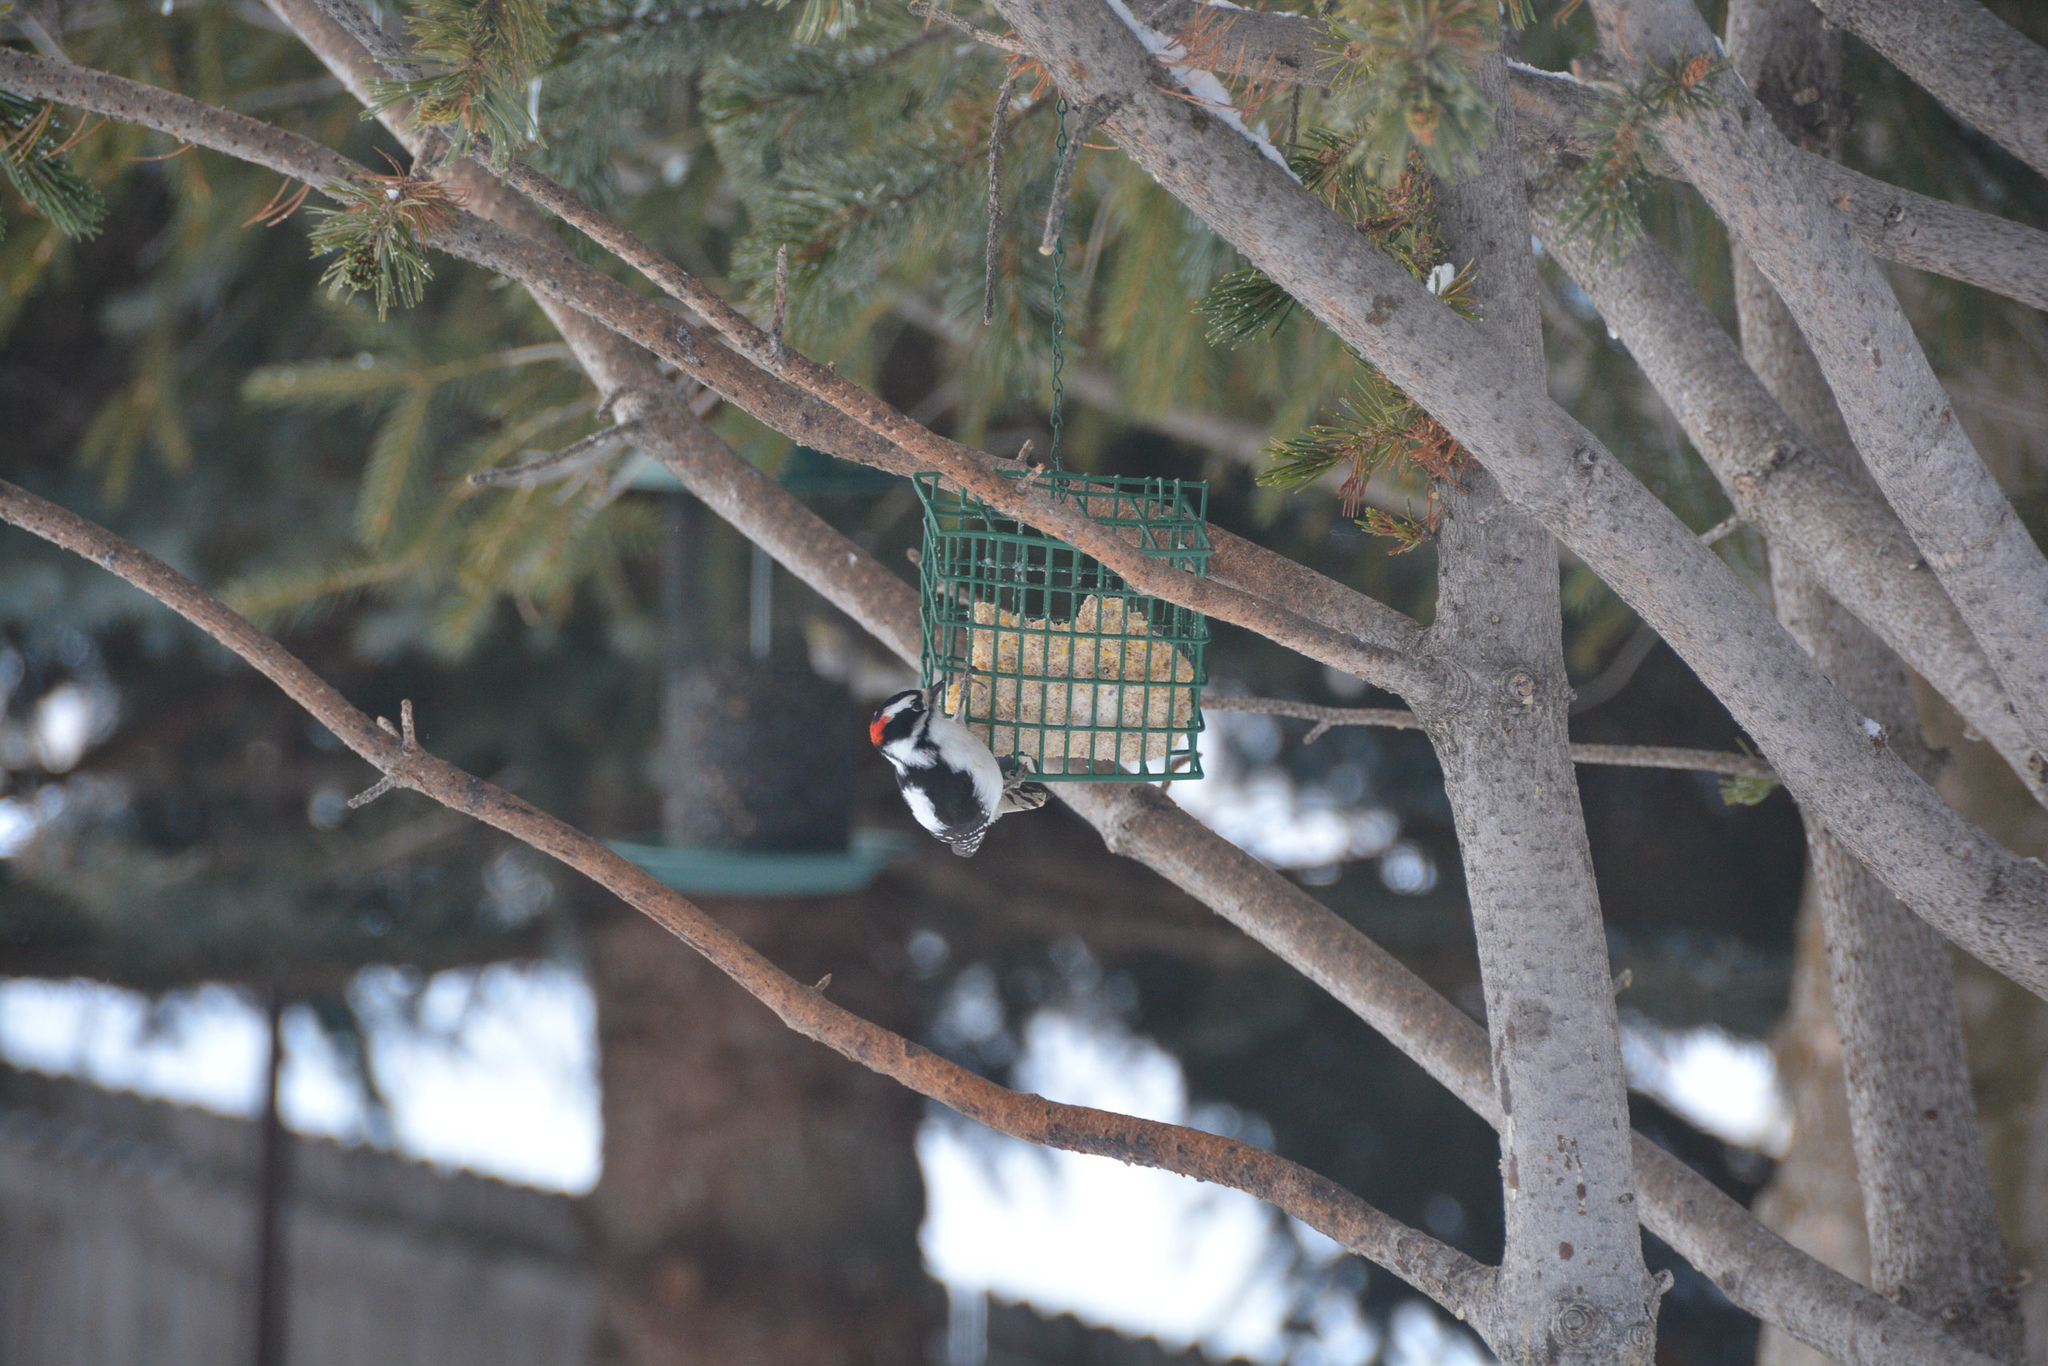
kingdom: Animalia
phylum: Chordata
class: Aves
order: Piciformes
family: Picidae
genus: Dryobates
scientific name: Dryobates pubescens
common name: Downy woodpecker
